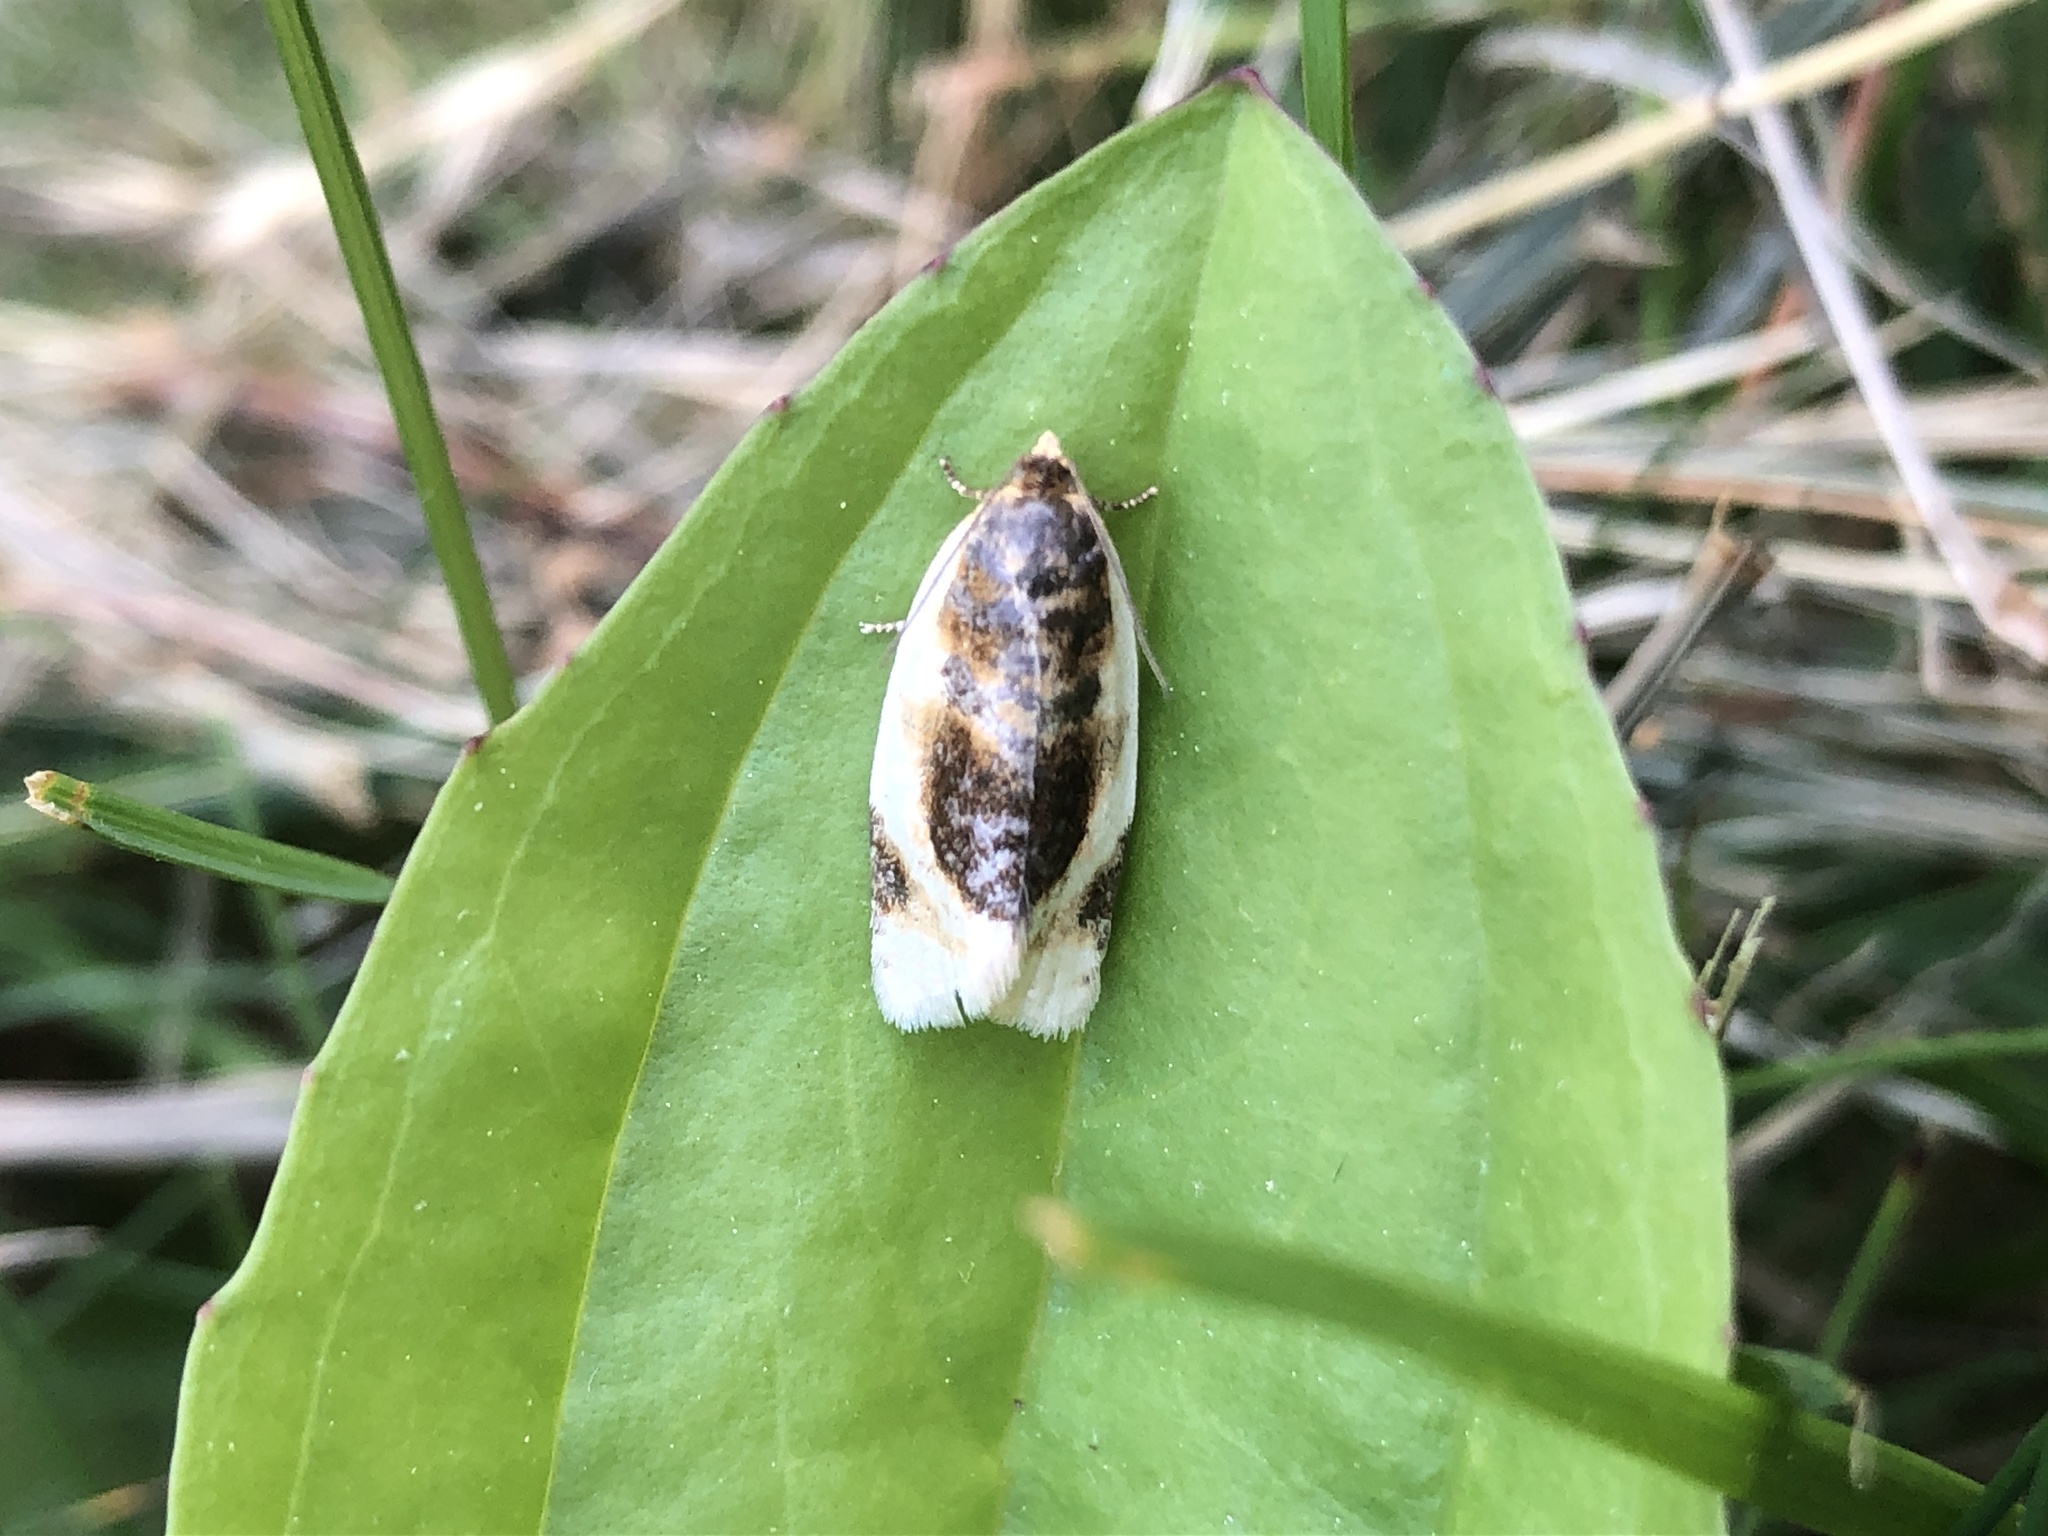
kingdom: Animalia
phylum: Arthropoda
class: Insecta
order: Lepidoptera
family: Tortricidae
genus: Clepsis
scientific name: Clepsis melaleucanus
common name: American apple tortrix
